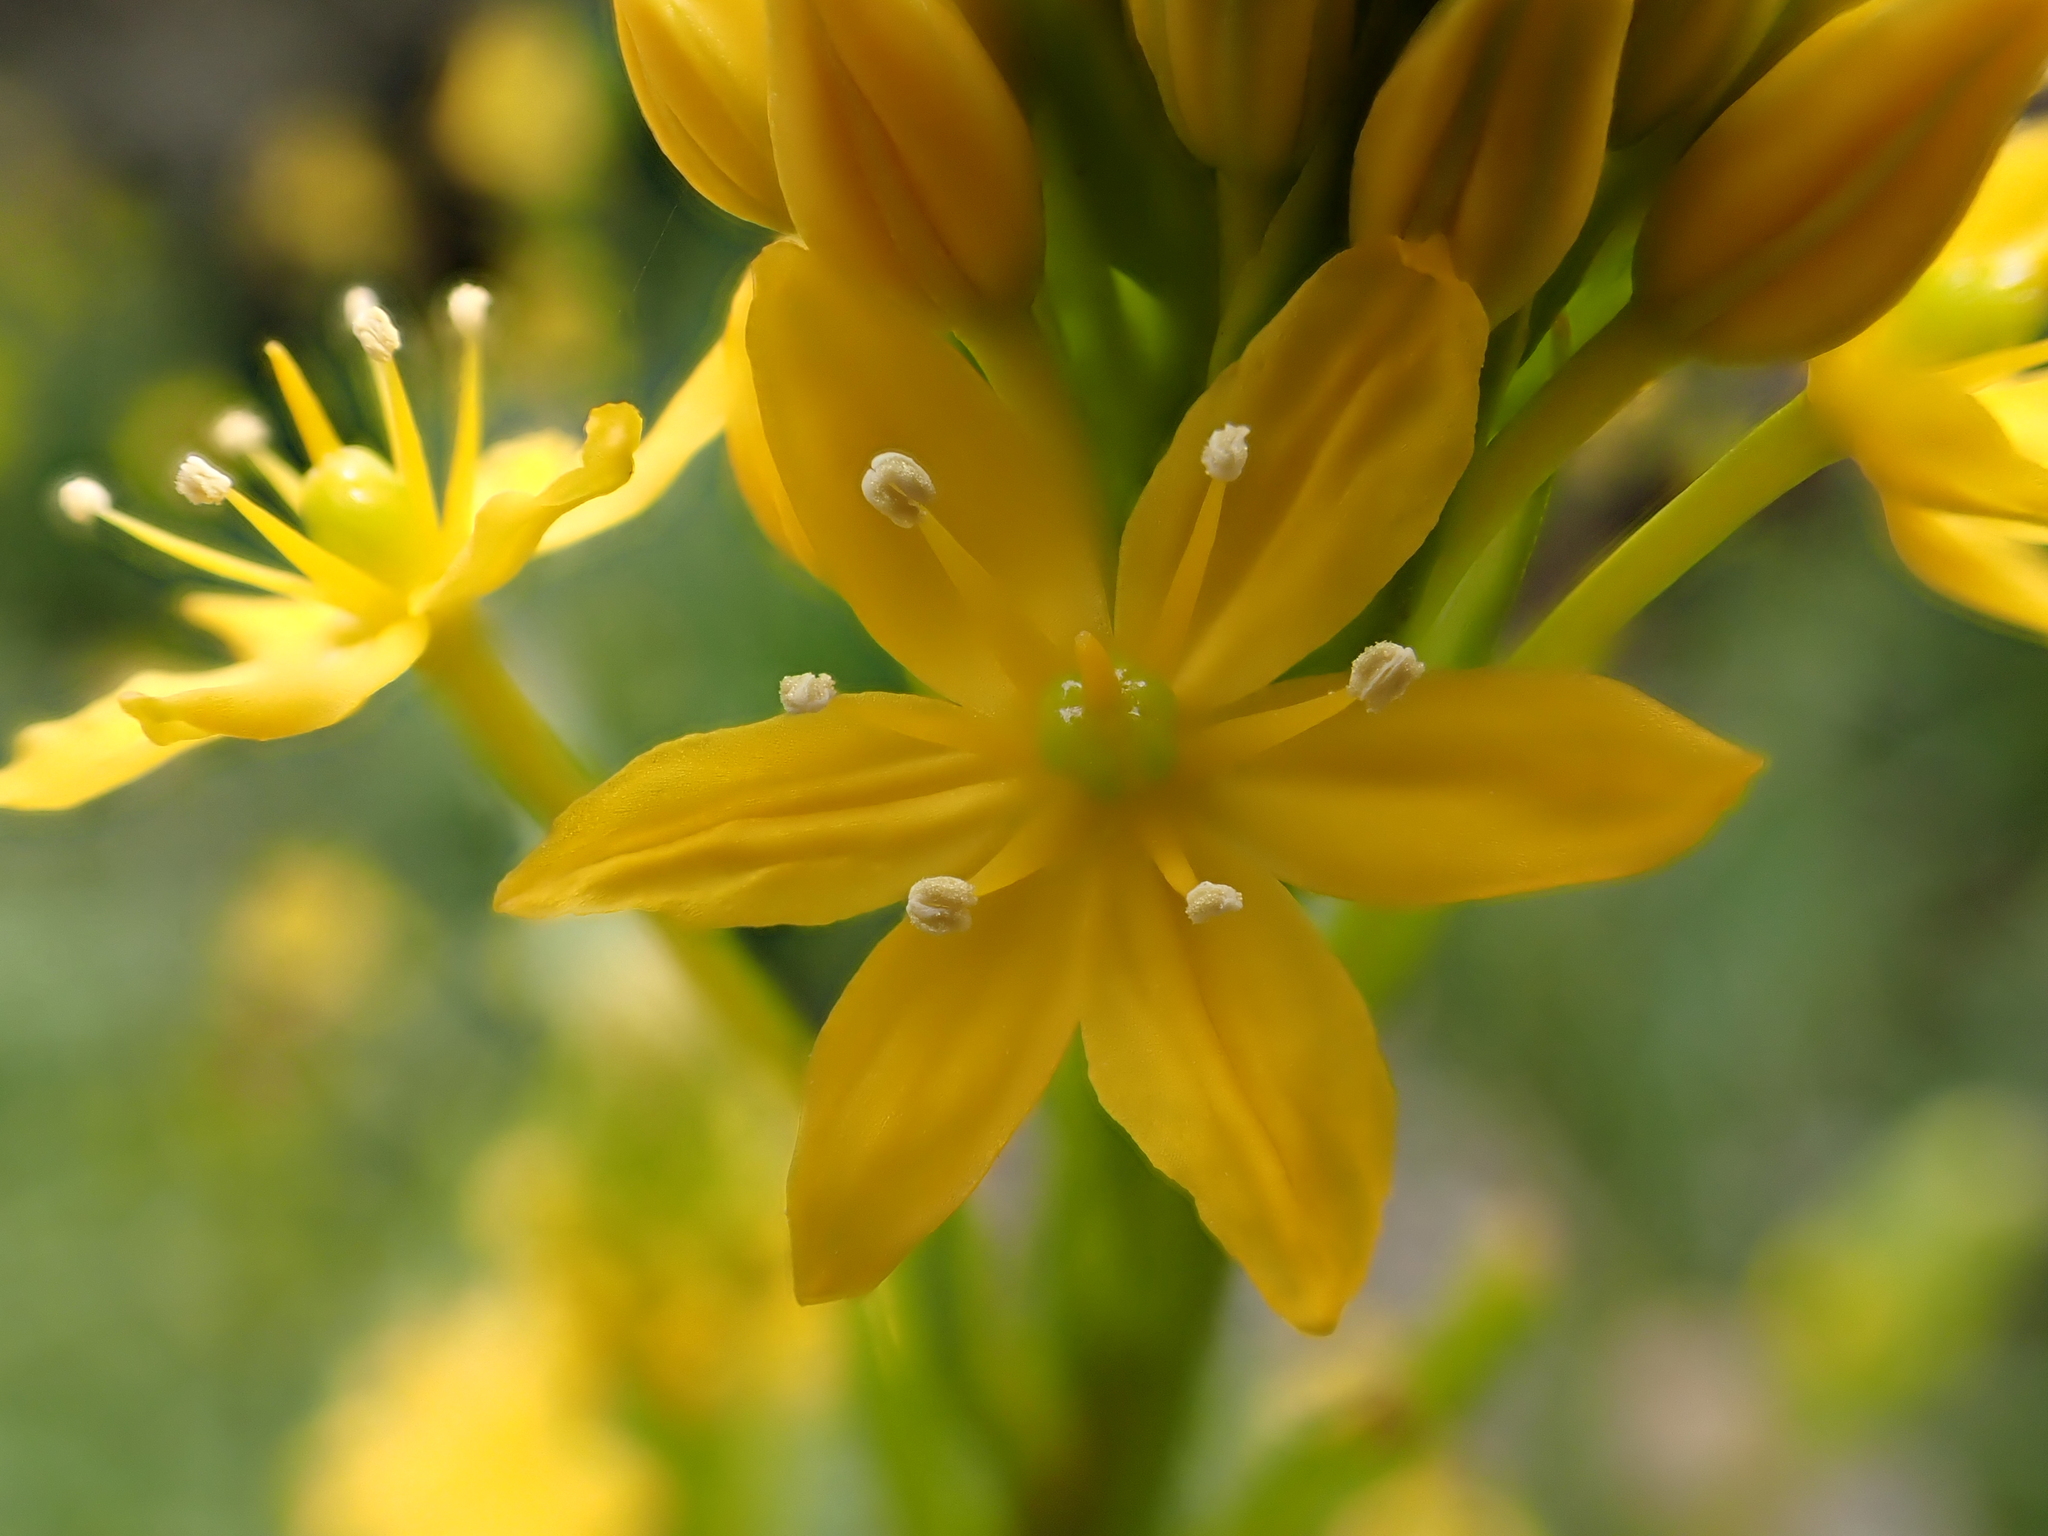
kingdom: Plantae
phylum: Tracheophyta
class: Liliopsida
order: Asparagales
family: Asphodelaceae
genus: Bulbinella
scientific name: Bulbinella hookeri
